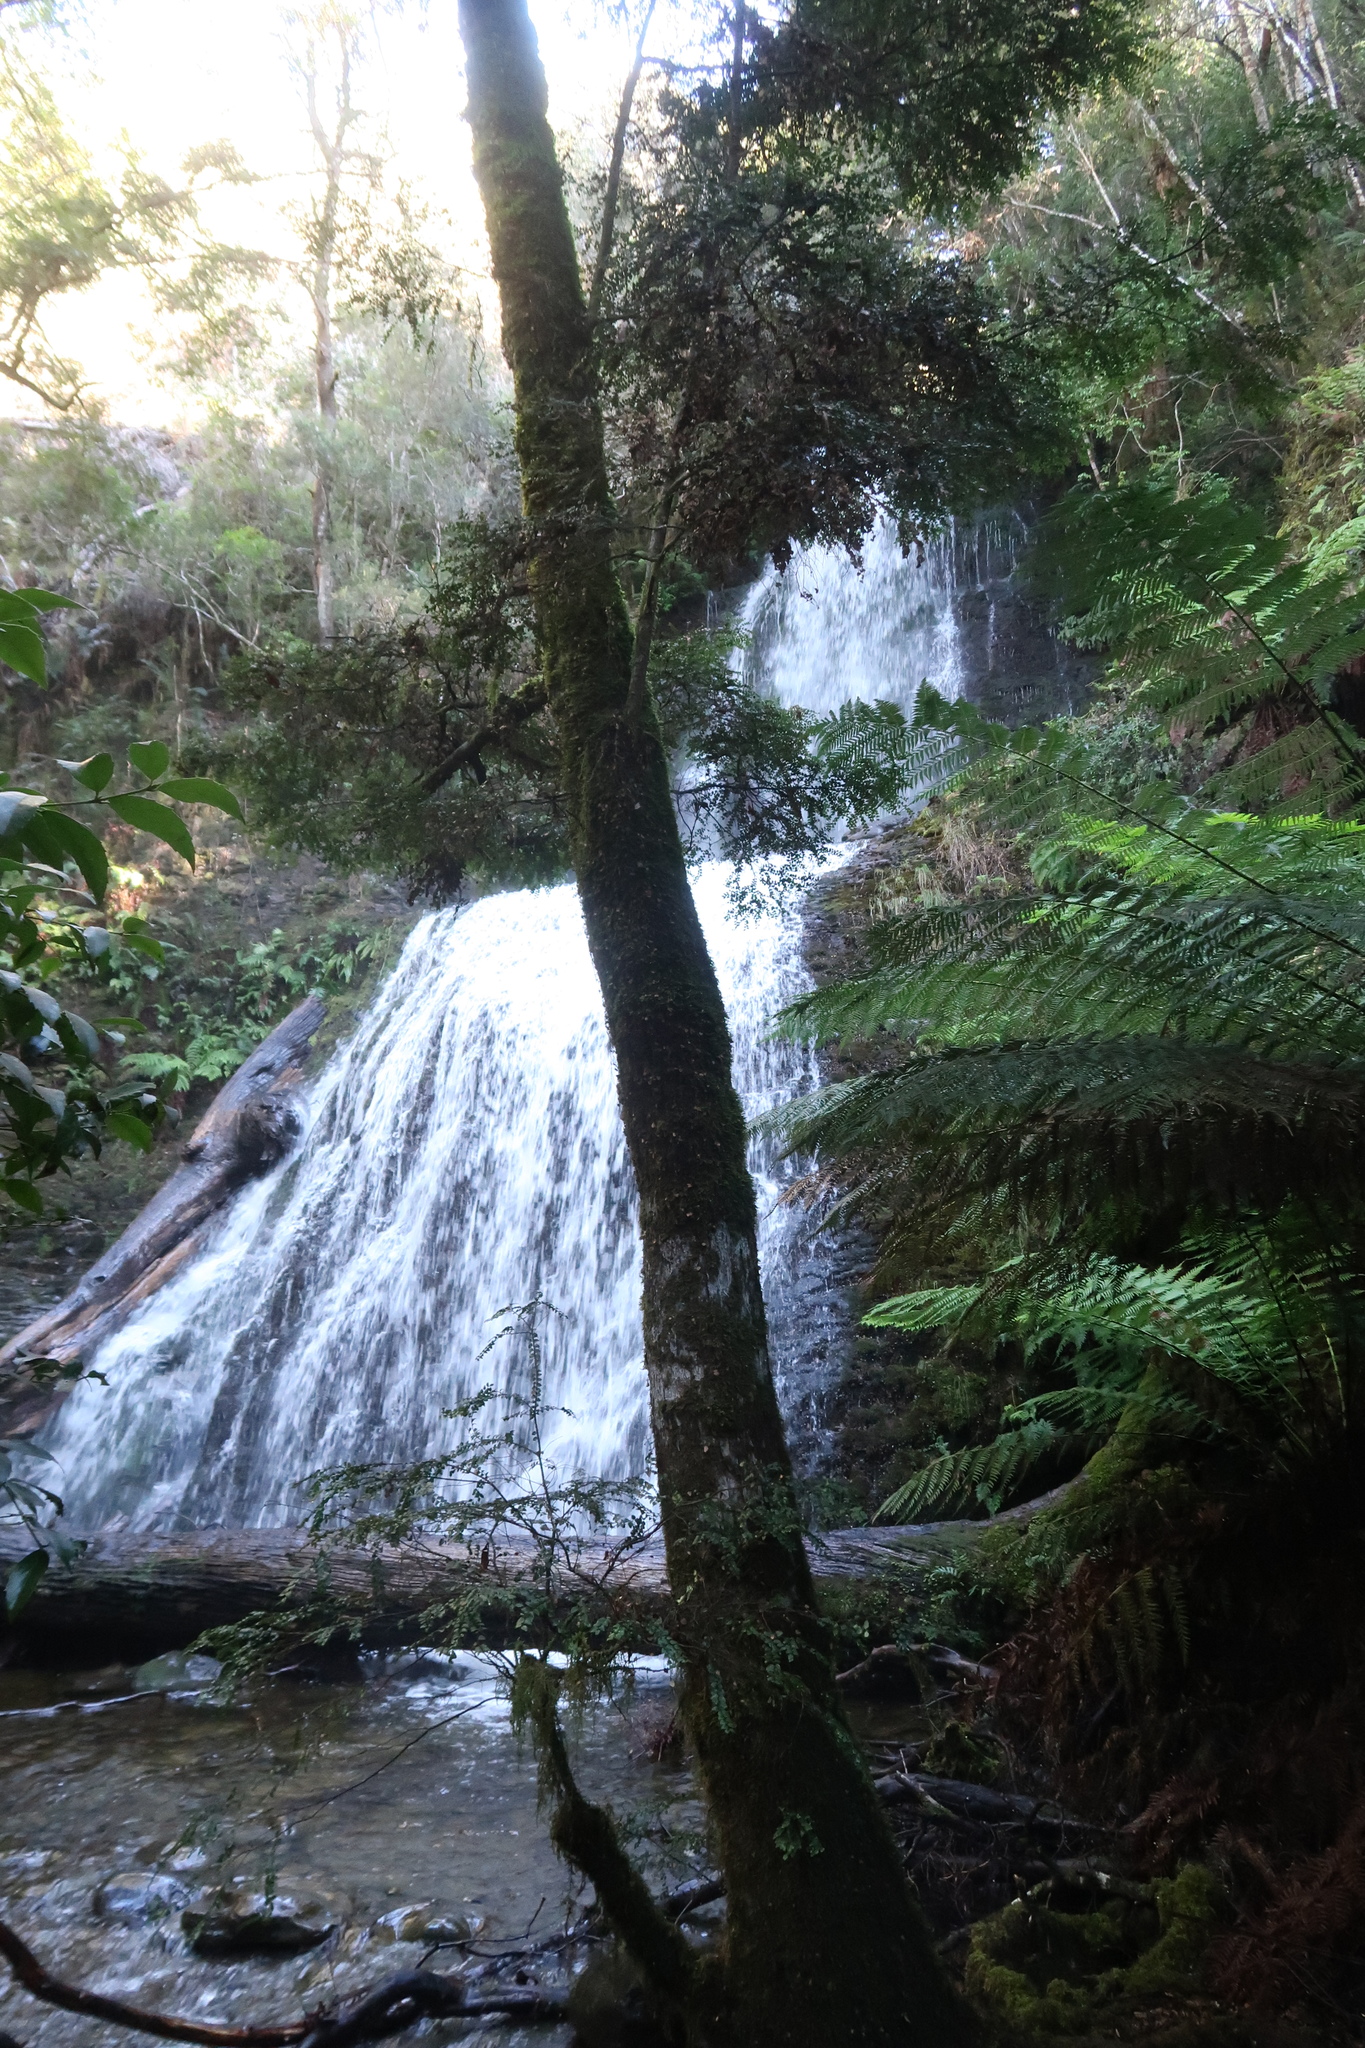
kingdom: Plantae
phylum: Tracheophyta
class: Magnoliopsida
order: Fagales
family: Nothofagaceae
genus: Nothofagus
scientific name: Nothofagus cunninghamii
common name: Myrtle beech
